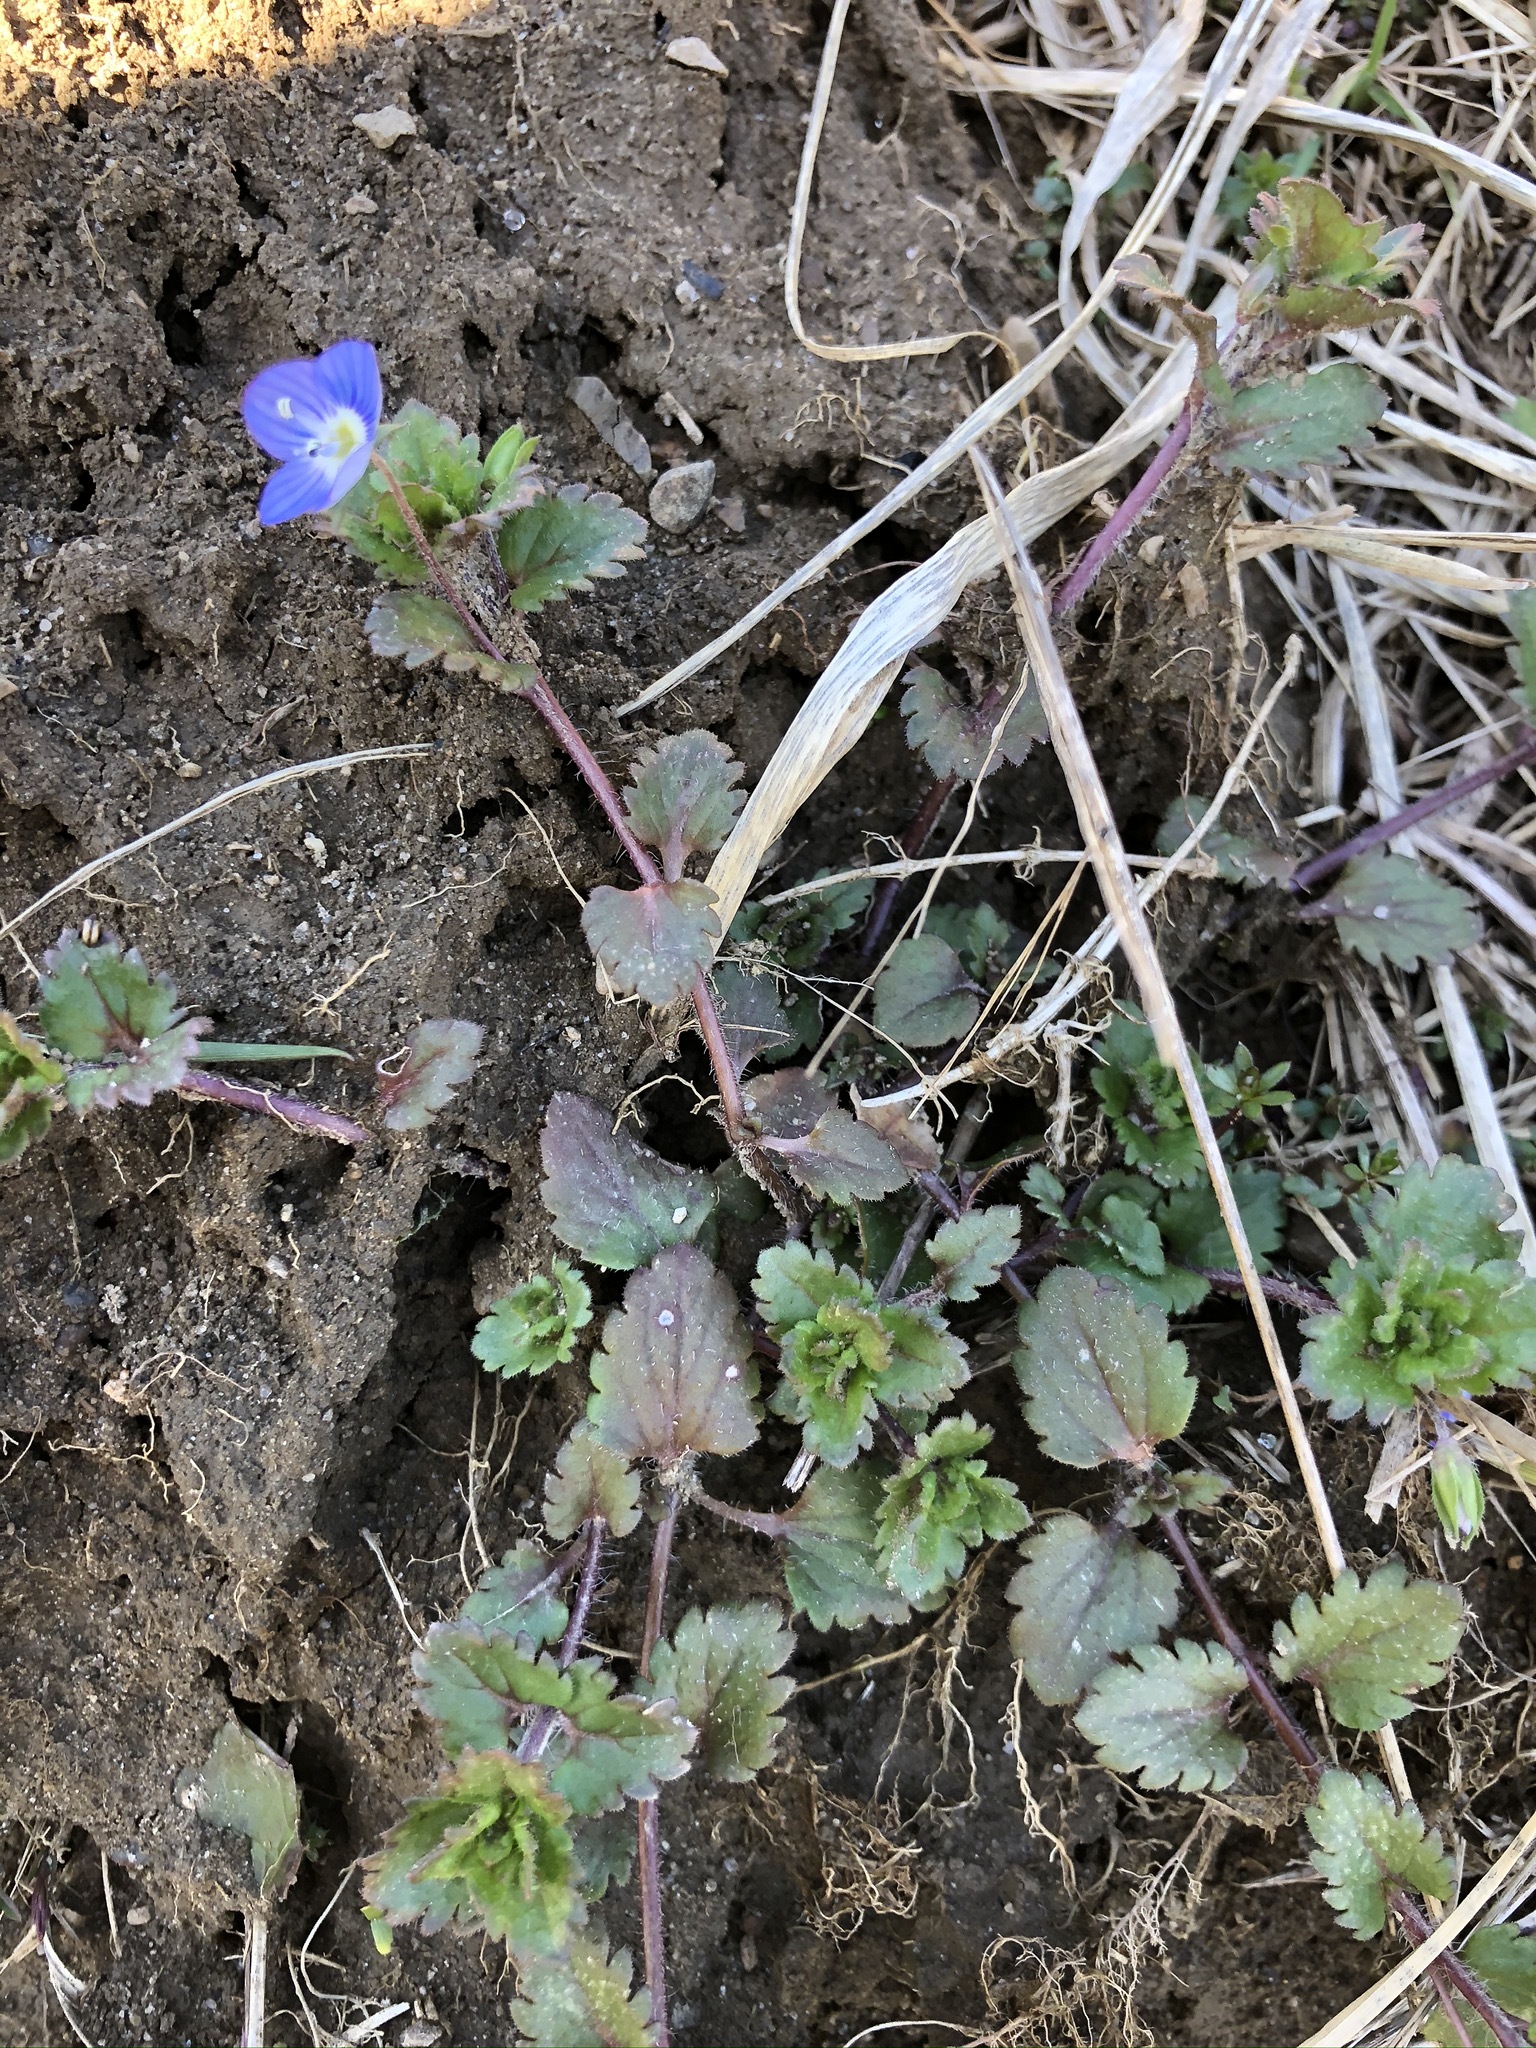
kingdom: Plantae
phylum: Tracheophyta
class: Magnoliopsida
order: Lamiales
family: Plantaginaceae
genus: Veronica
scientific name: Veronica persica
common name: Common field-speedwell
